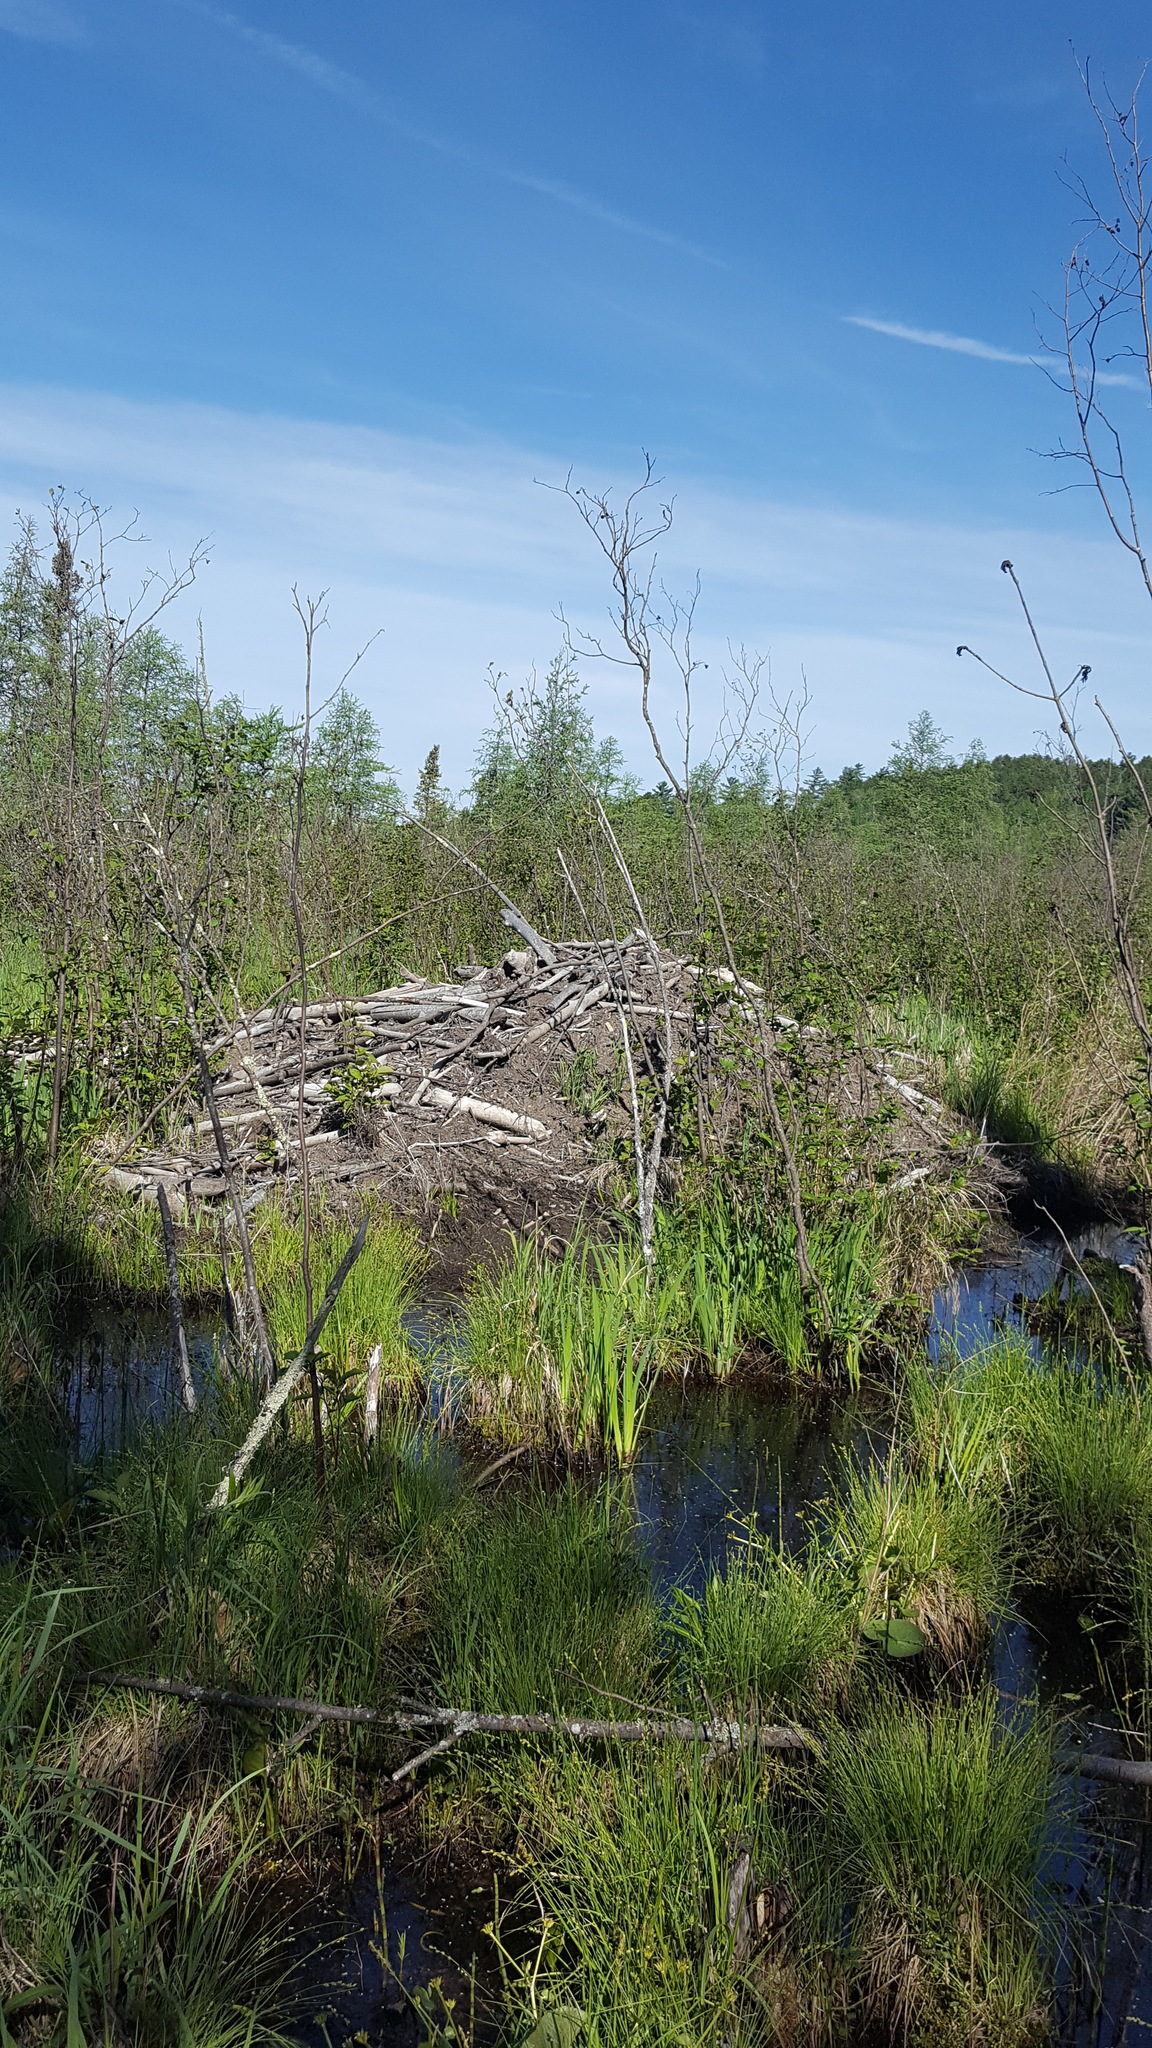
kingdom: Animalia
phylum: Chordata
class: Mammalia
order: Rodentia
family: Castoridae
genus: Castor
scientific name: Castor canadensis
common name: American beaver
